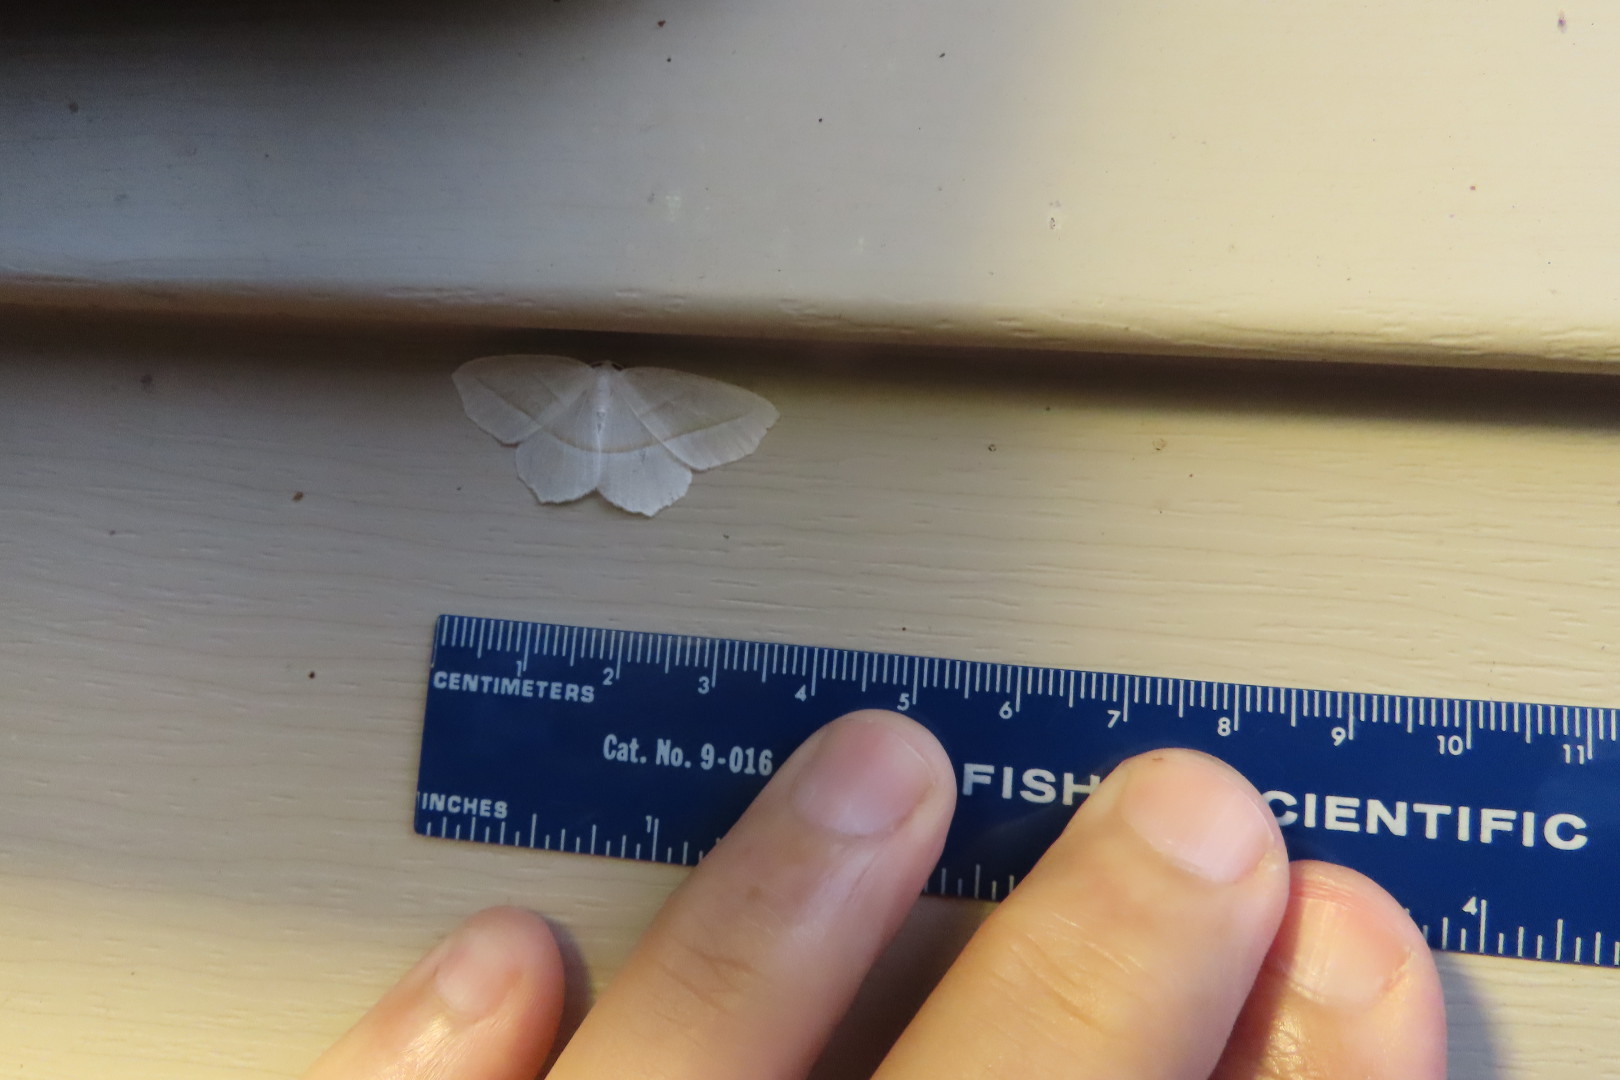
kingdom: Animalia
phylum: Arthropoda
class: Insecta
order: Lepidoptera
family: Geometridae
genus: Campaea
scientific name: Campaea perlata
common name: Fringed looper
